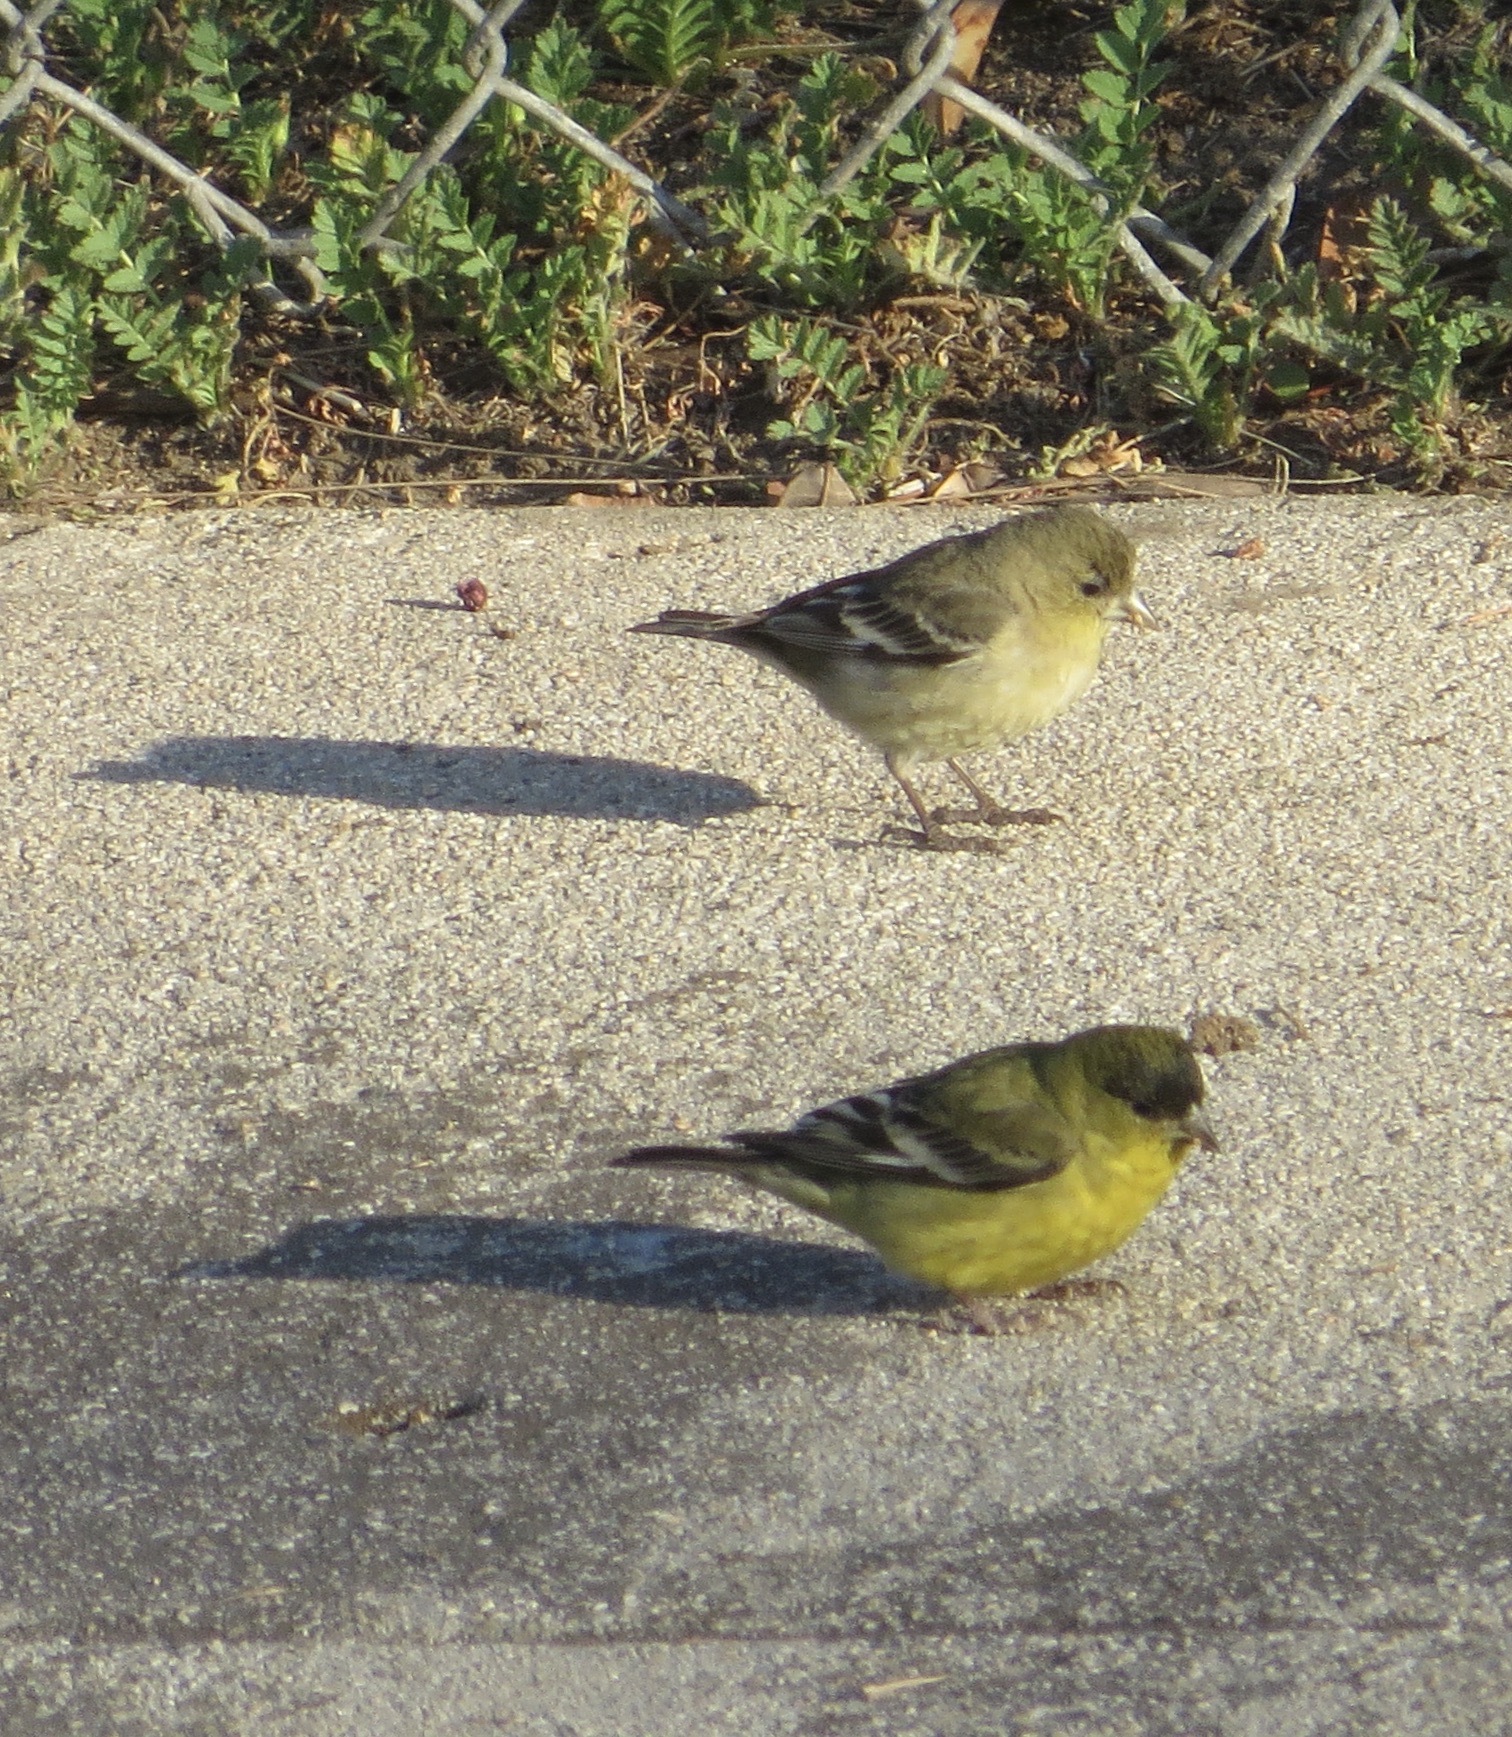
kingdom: Animalia
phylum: Chordata
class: Aves
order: Passeriformes
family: Fringillidae
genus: Spinus
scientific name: Spinus psaltria
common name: Lesser goldfinch
